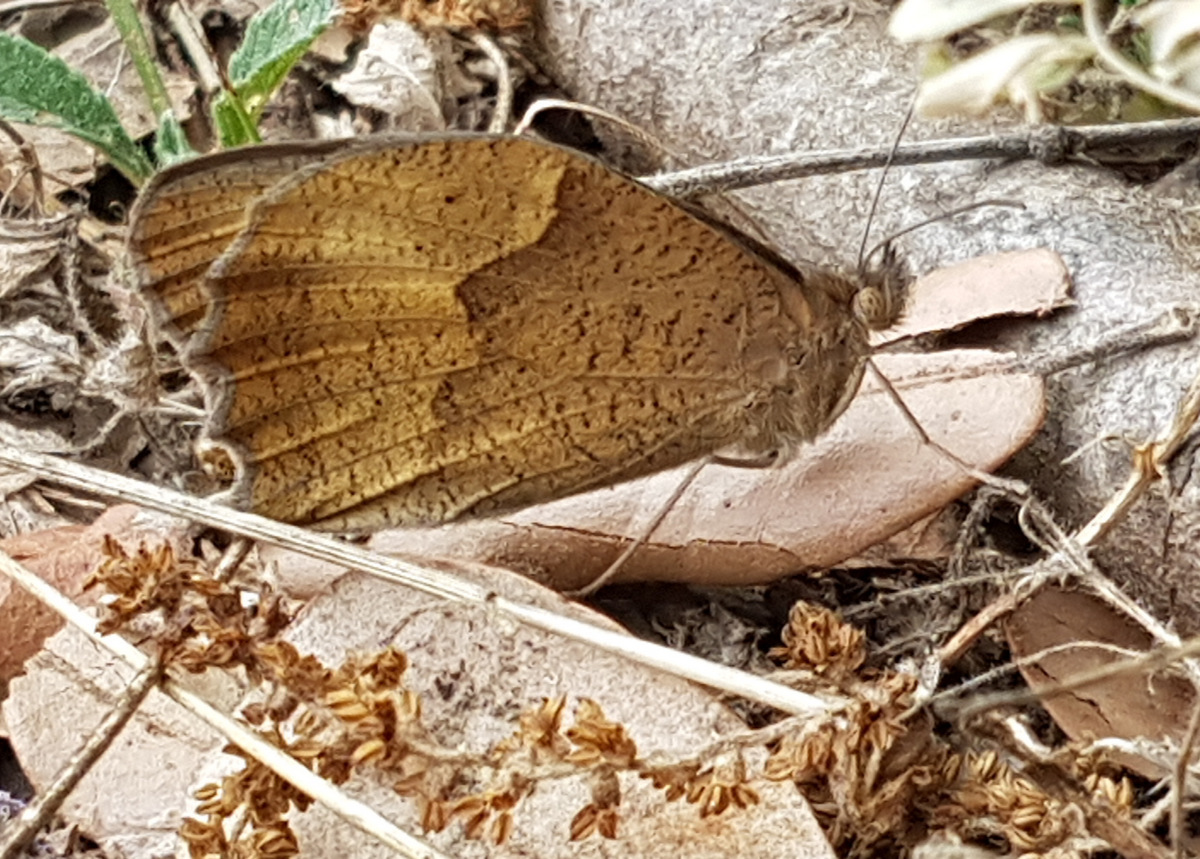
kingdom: Animalia
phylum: Arthropoda
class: Insecta
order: Lepidoptera
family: Nymphalidae
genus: Maniola
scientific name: Maniola jurtina
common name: Meadow brown
